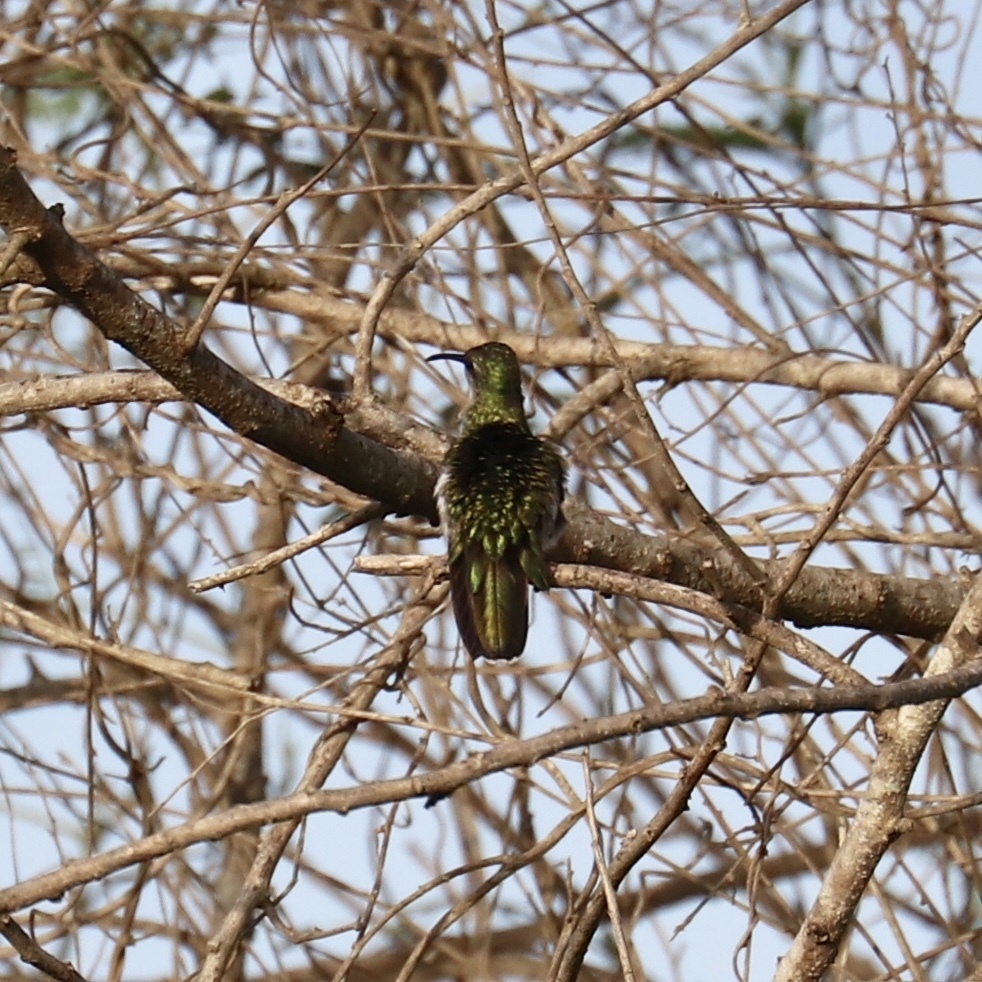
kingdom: Animalia
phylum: Chordata
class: Aves
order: Apodiformes
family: Trochilidae
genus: Anthracothorax
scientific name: Anthracothorax dominicus
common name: Antillean mango
